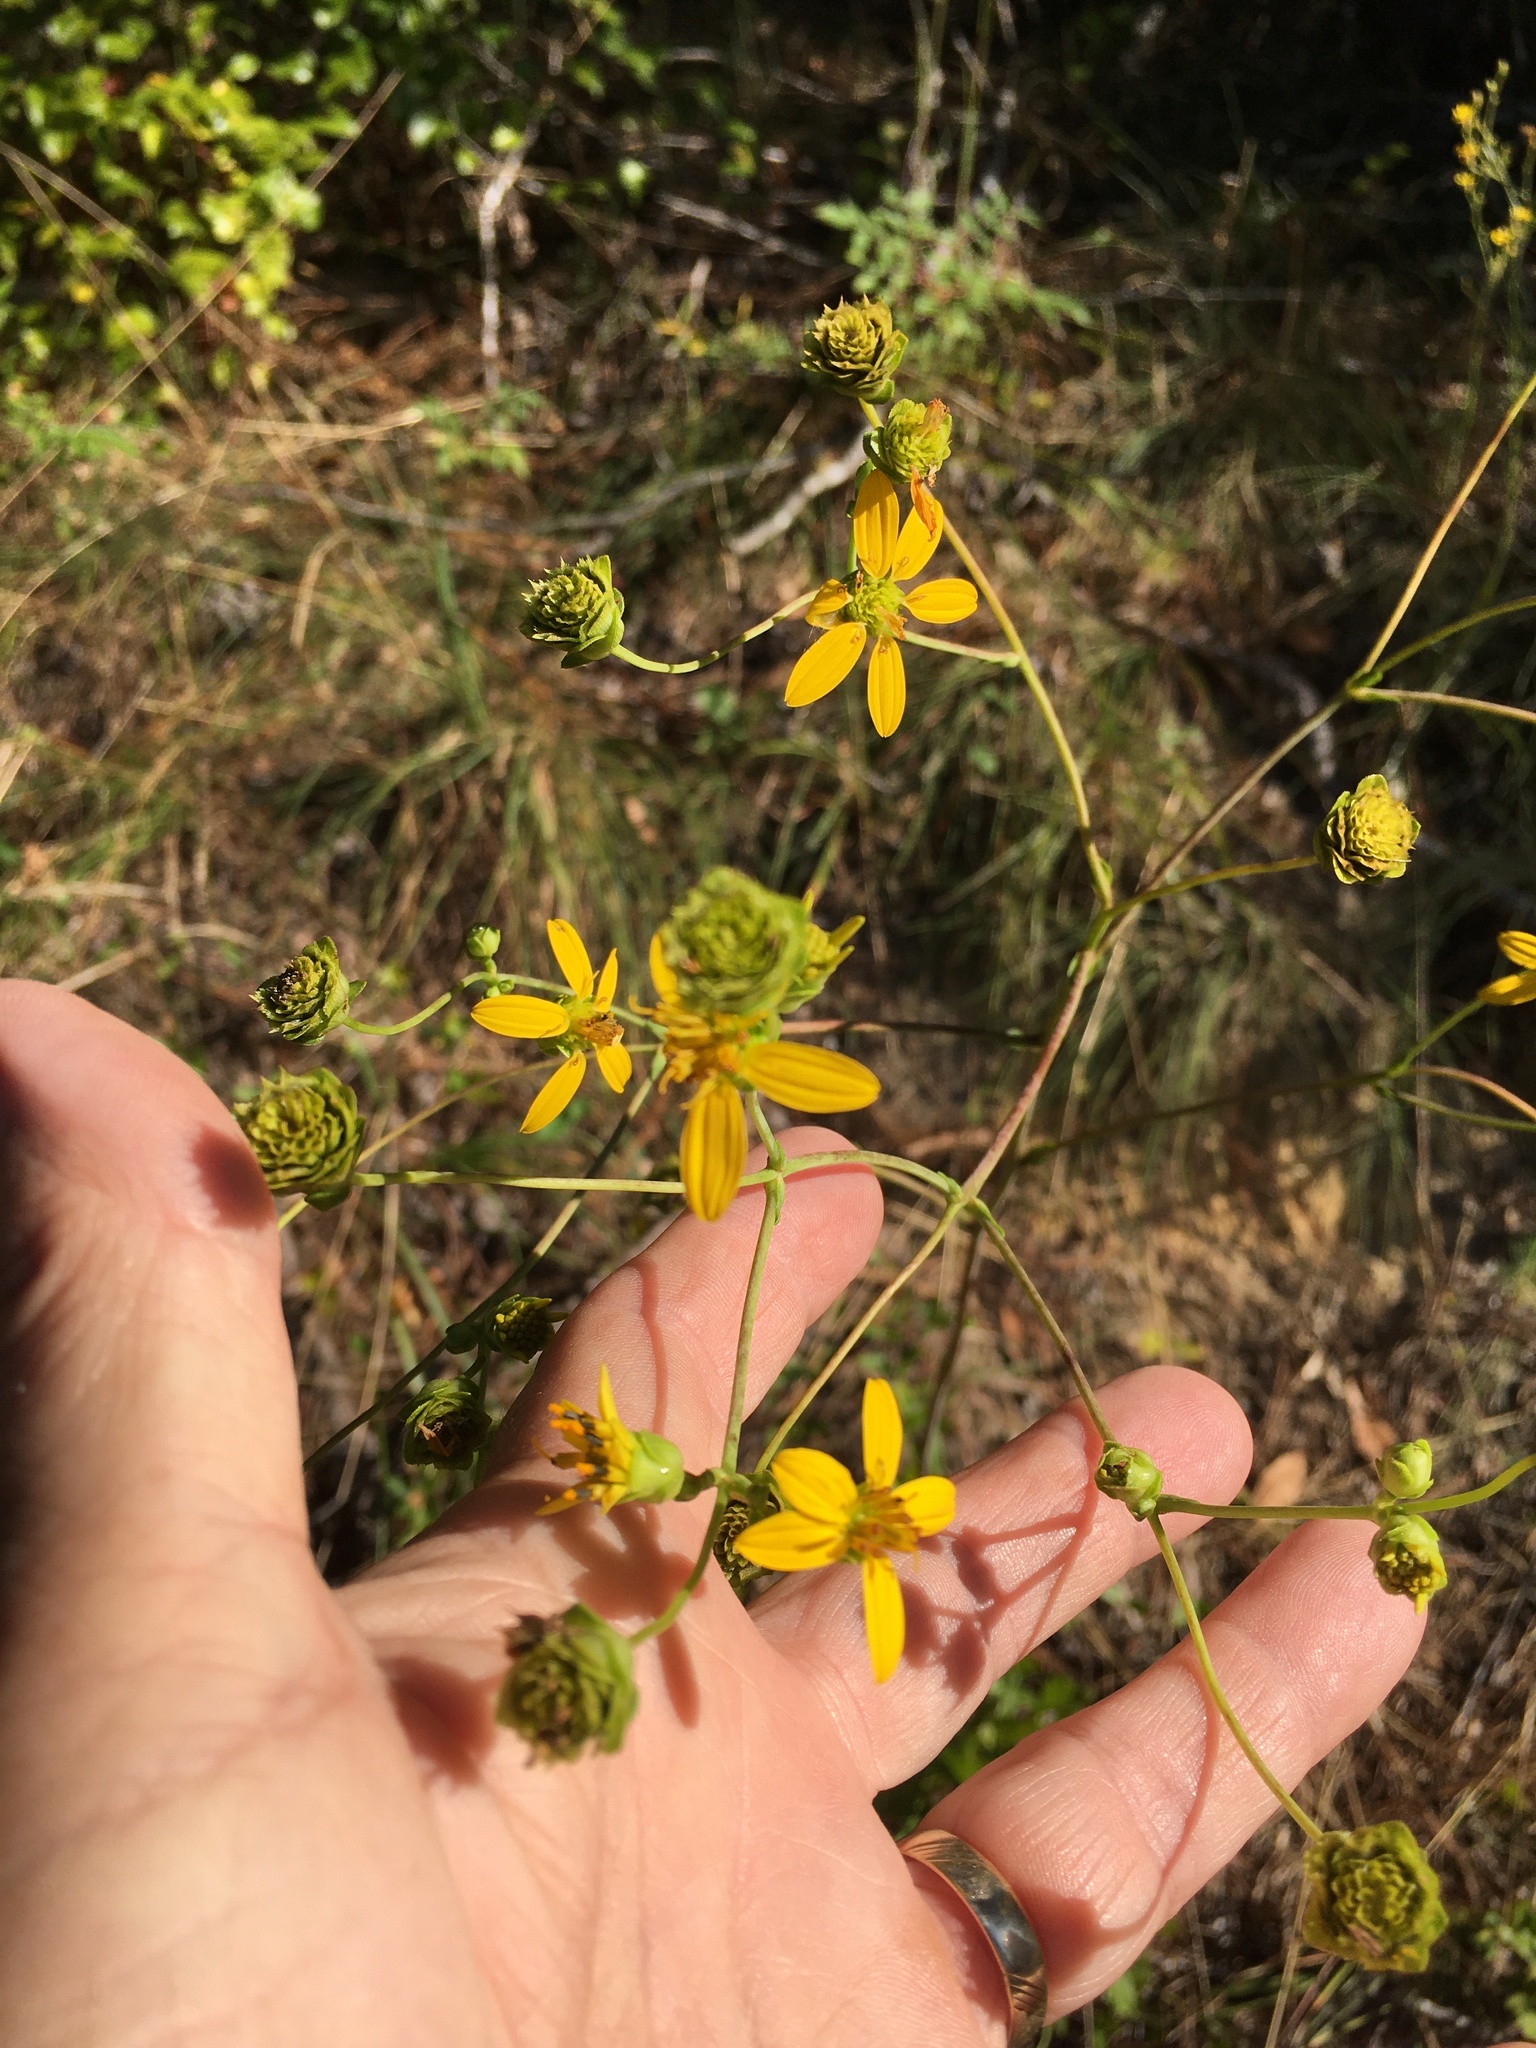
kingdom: Plantae
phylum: Tracheophyta
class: Magnoliopsida
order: Asterales
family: Asteraceae
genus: Silphium
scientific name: Silphium compositum
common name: Lesser basal-leaf rosinweed
